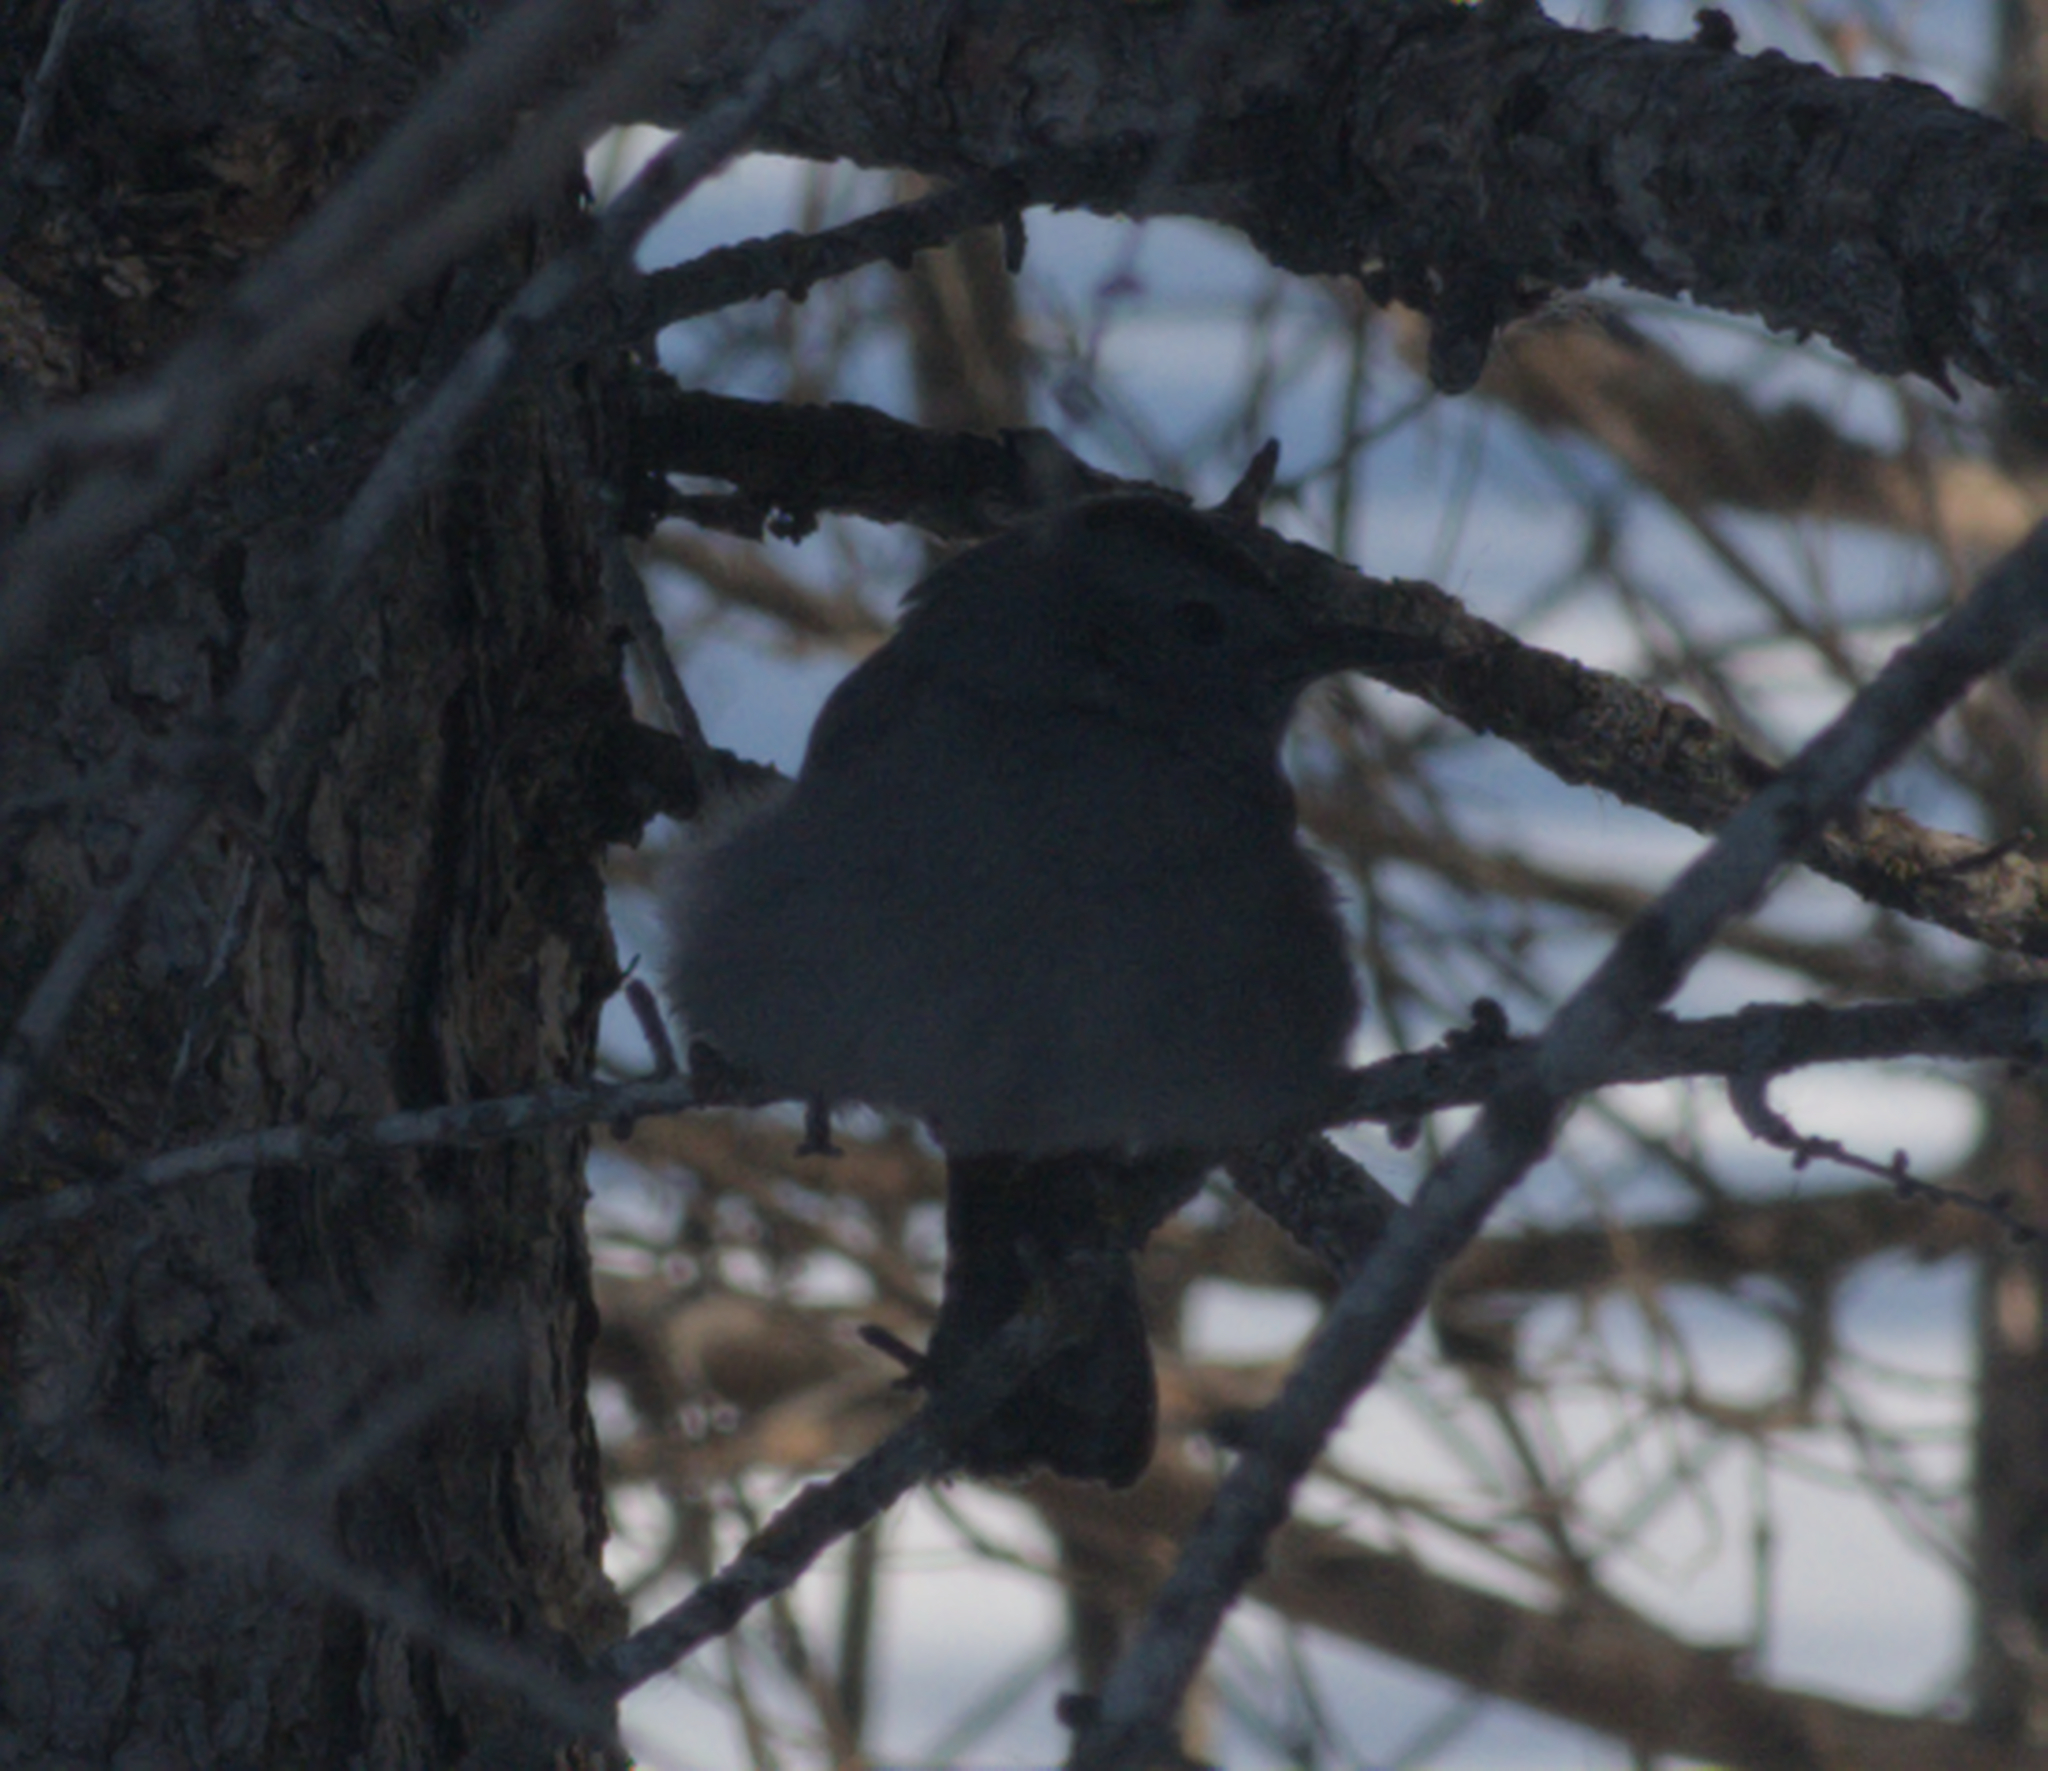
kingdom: Animalia
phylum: Chordata
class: Aves
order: Passeriformes
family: Mimidae
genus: Dumetella
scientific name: Dumetella carolinensis
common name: Gray catbird
